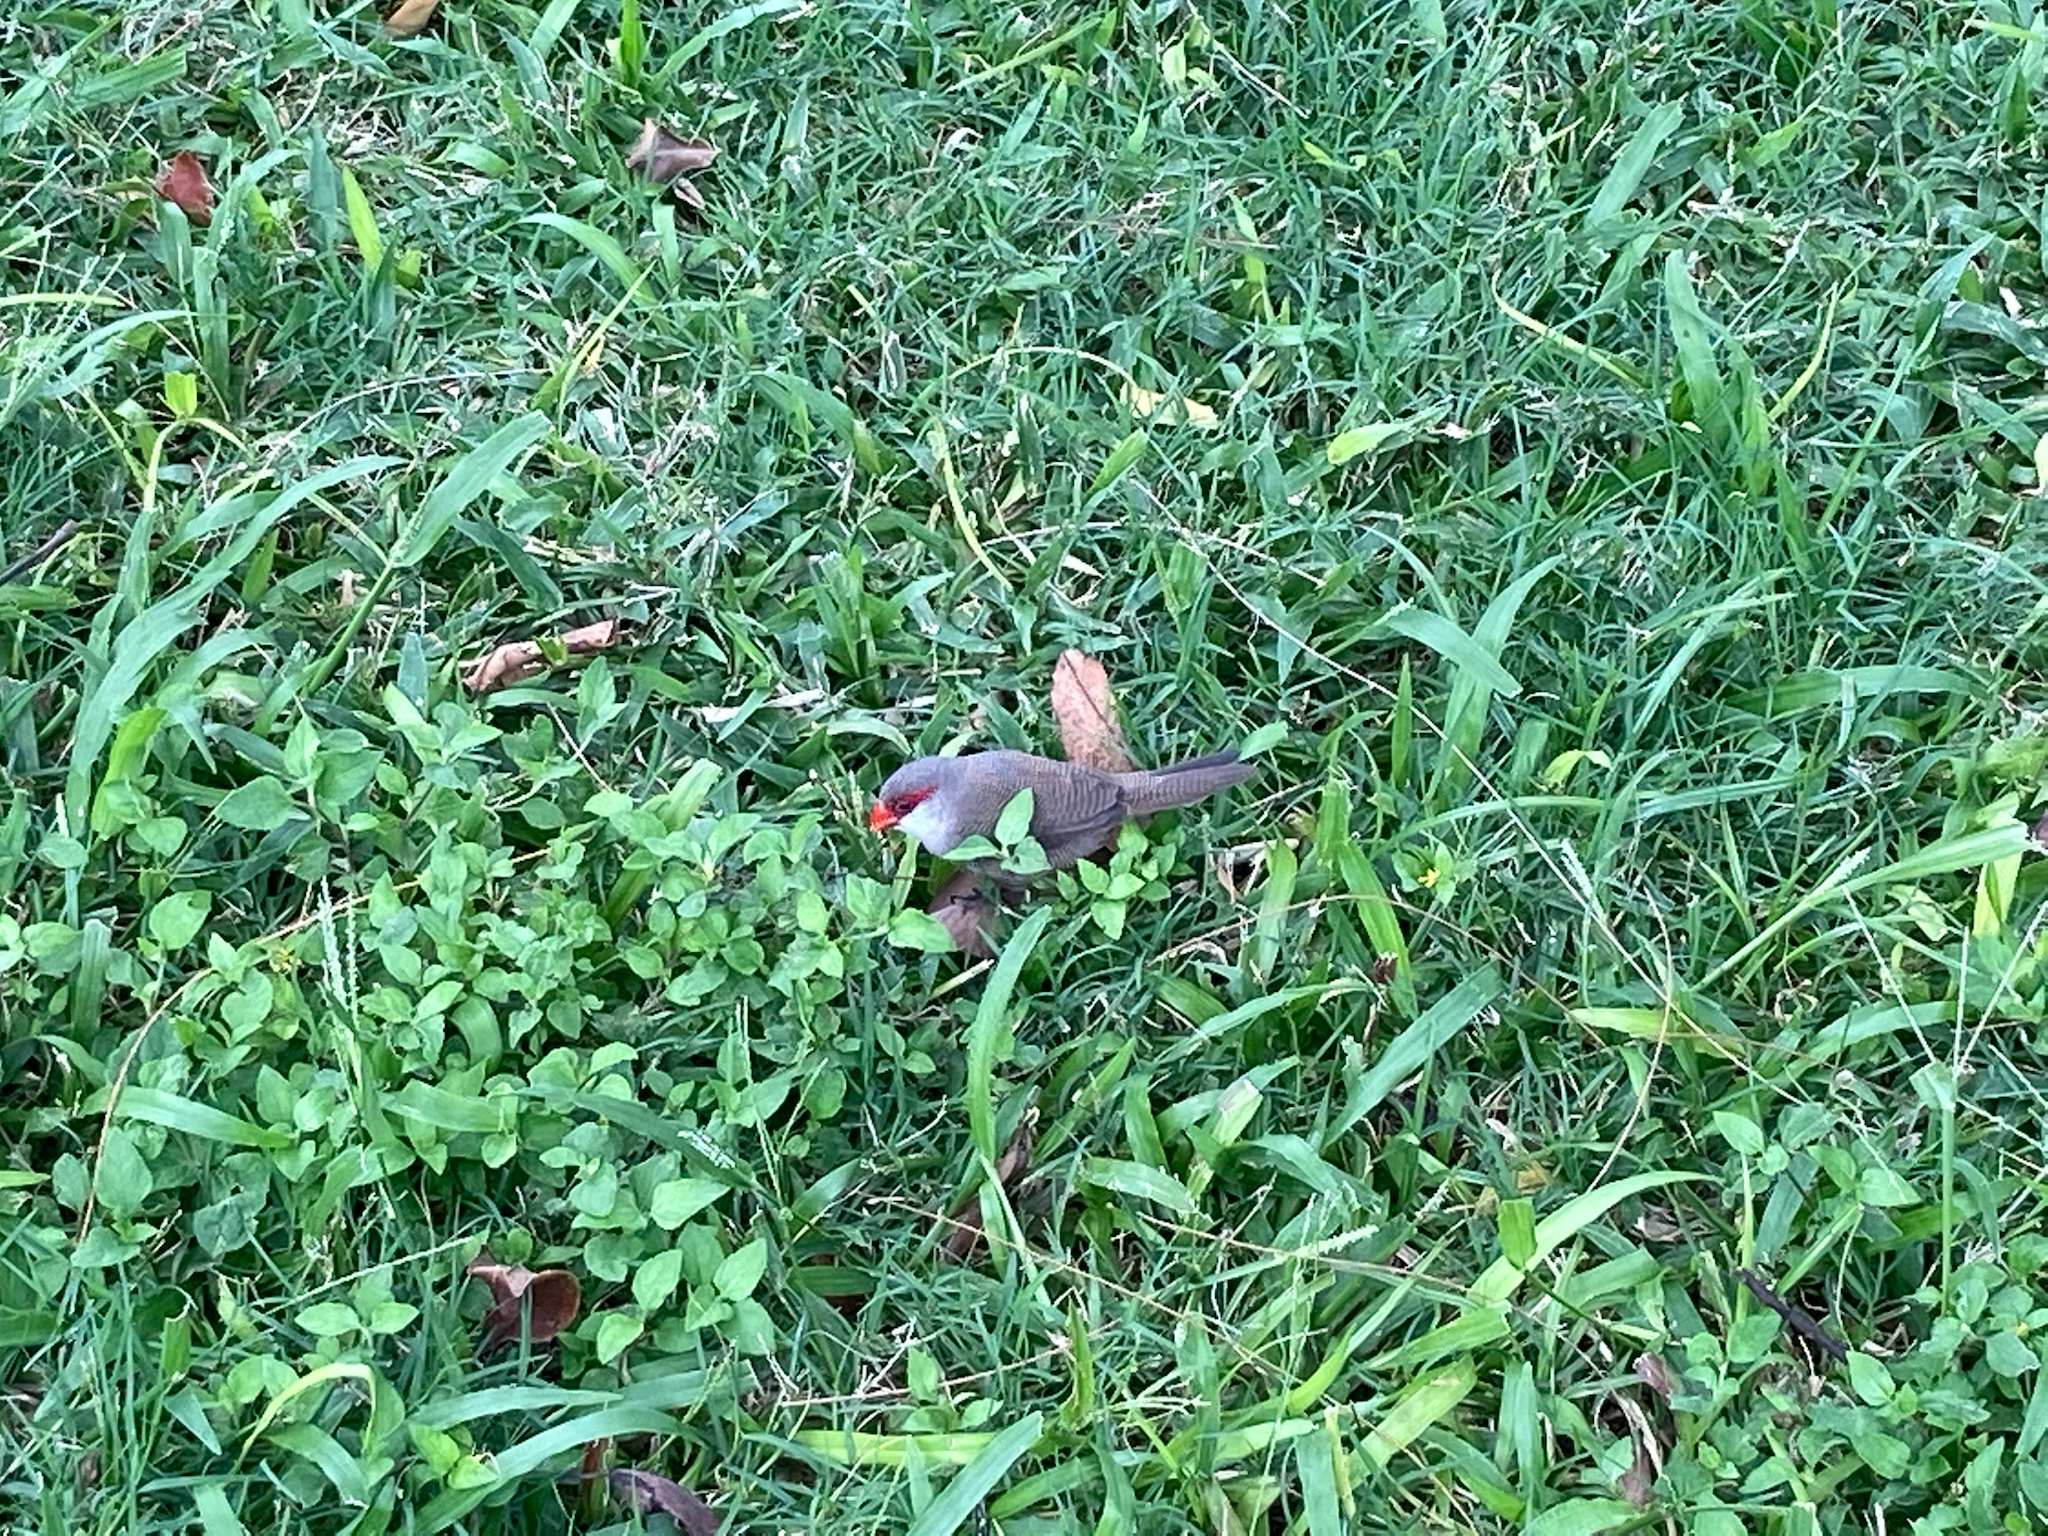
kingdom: Animalia
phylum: Chordata
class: Aves
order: Passeriformes
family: Estrildidae
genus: Estrilda
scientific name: Estrilda astrild
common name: Common waxbill
